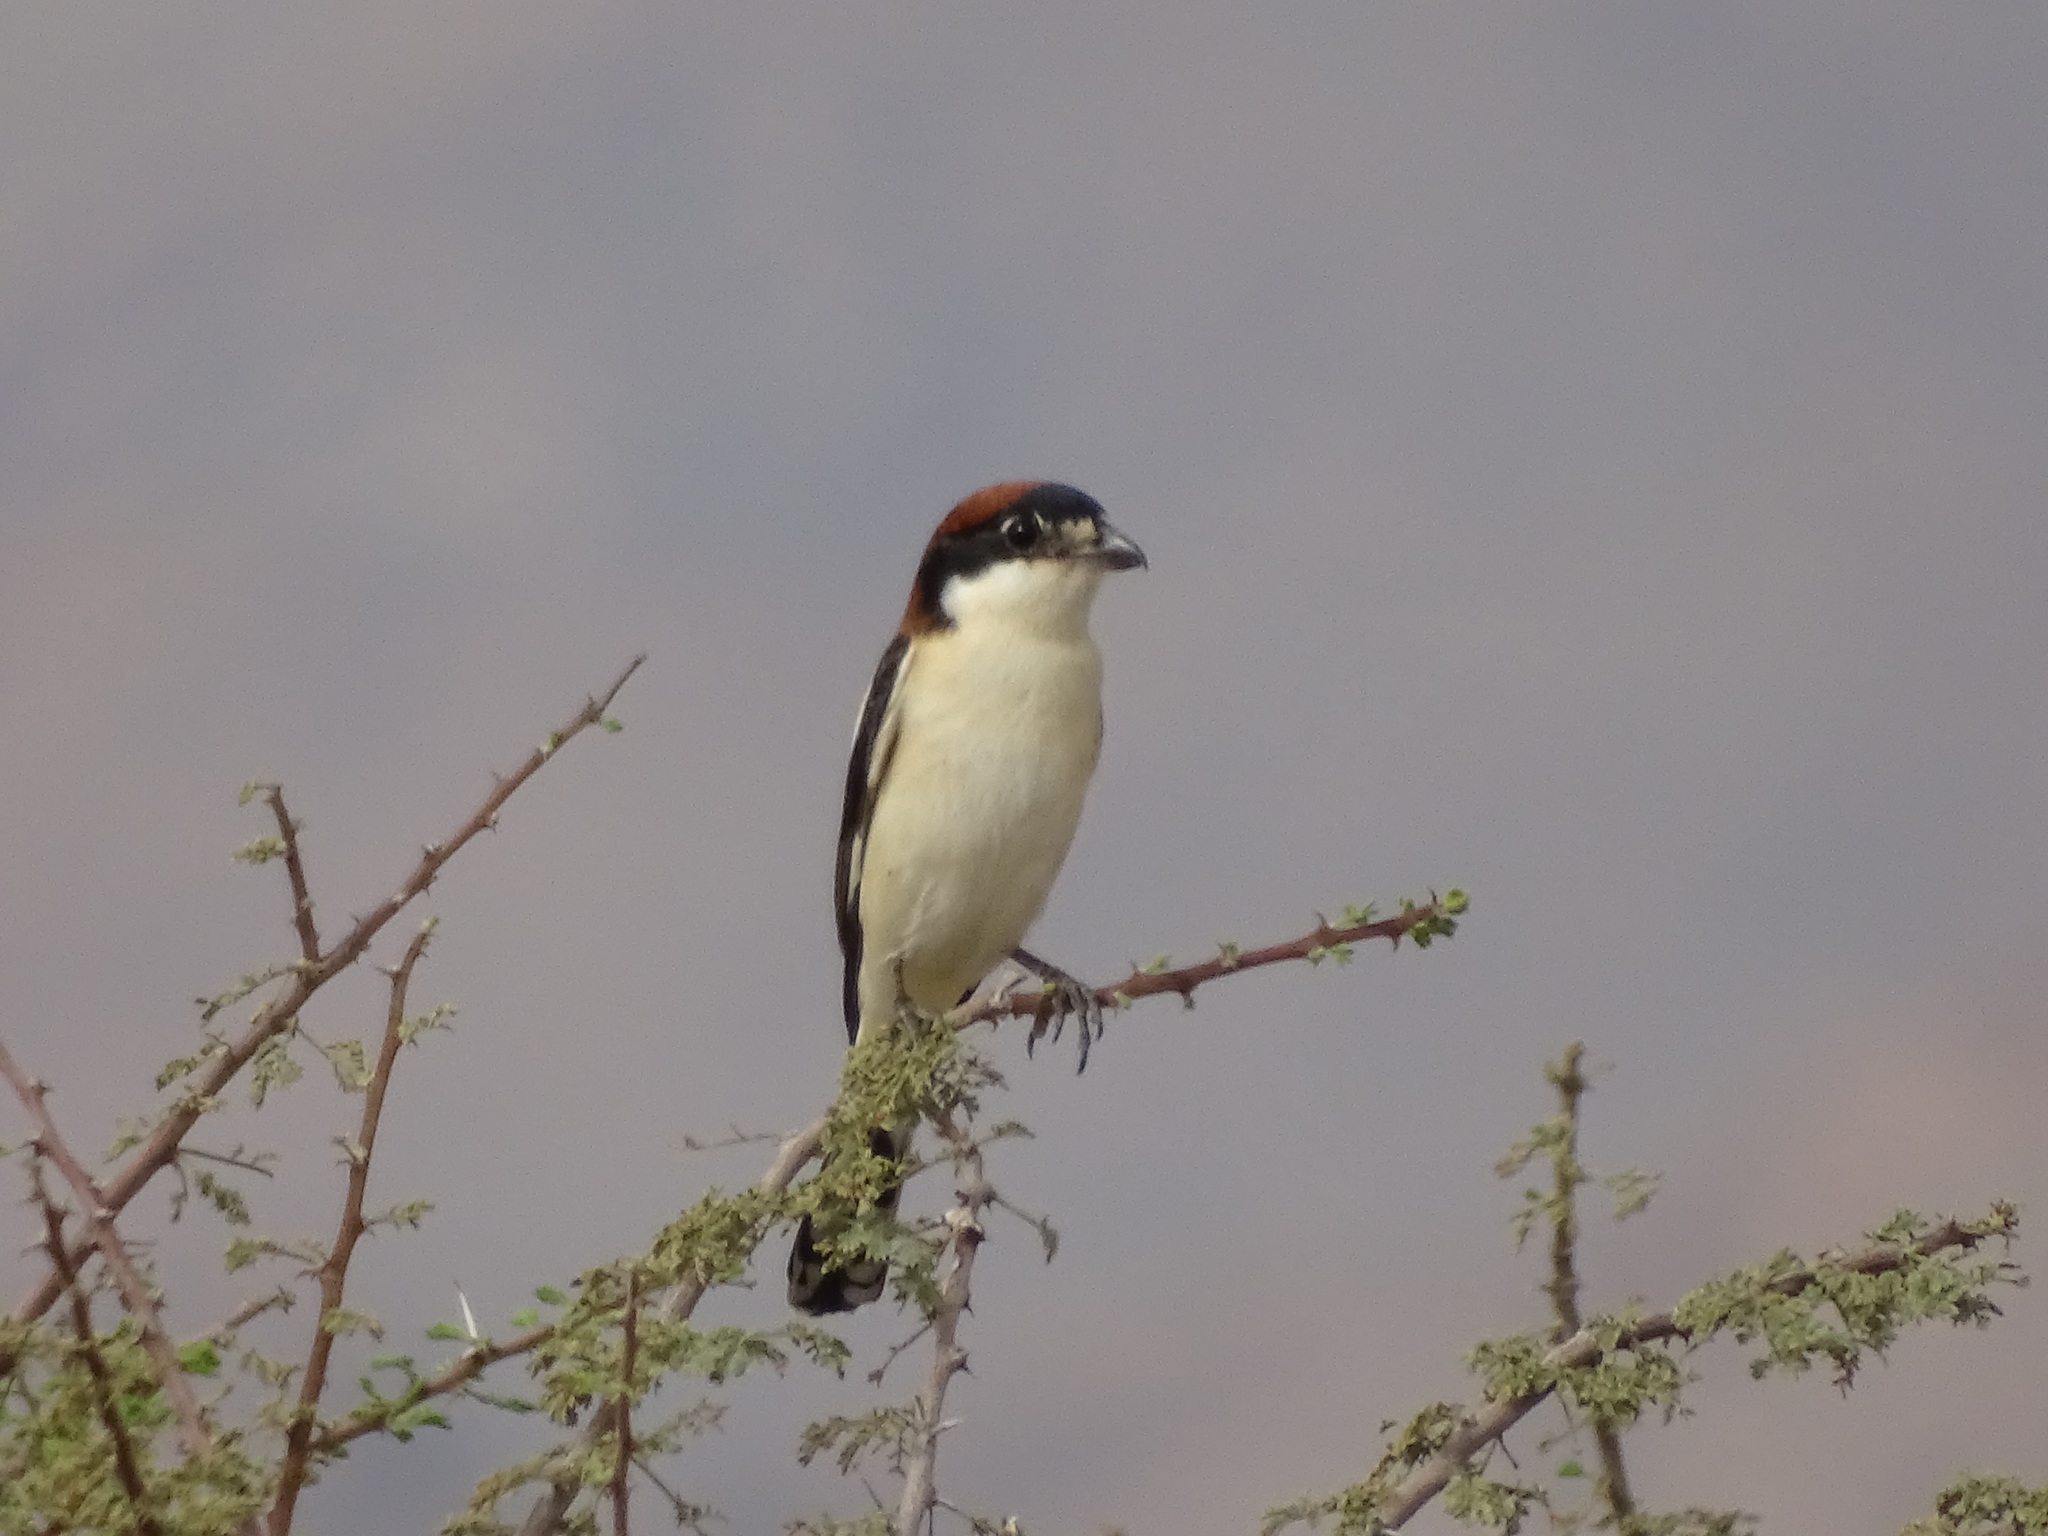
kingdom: Animalia
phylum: Chordata
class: Aves
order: Passeriformes
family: Laniidae
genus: Lanius
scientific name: Lanius senator
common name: Woodchat shrike
